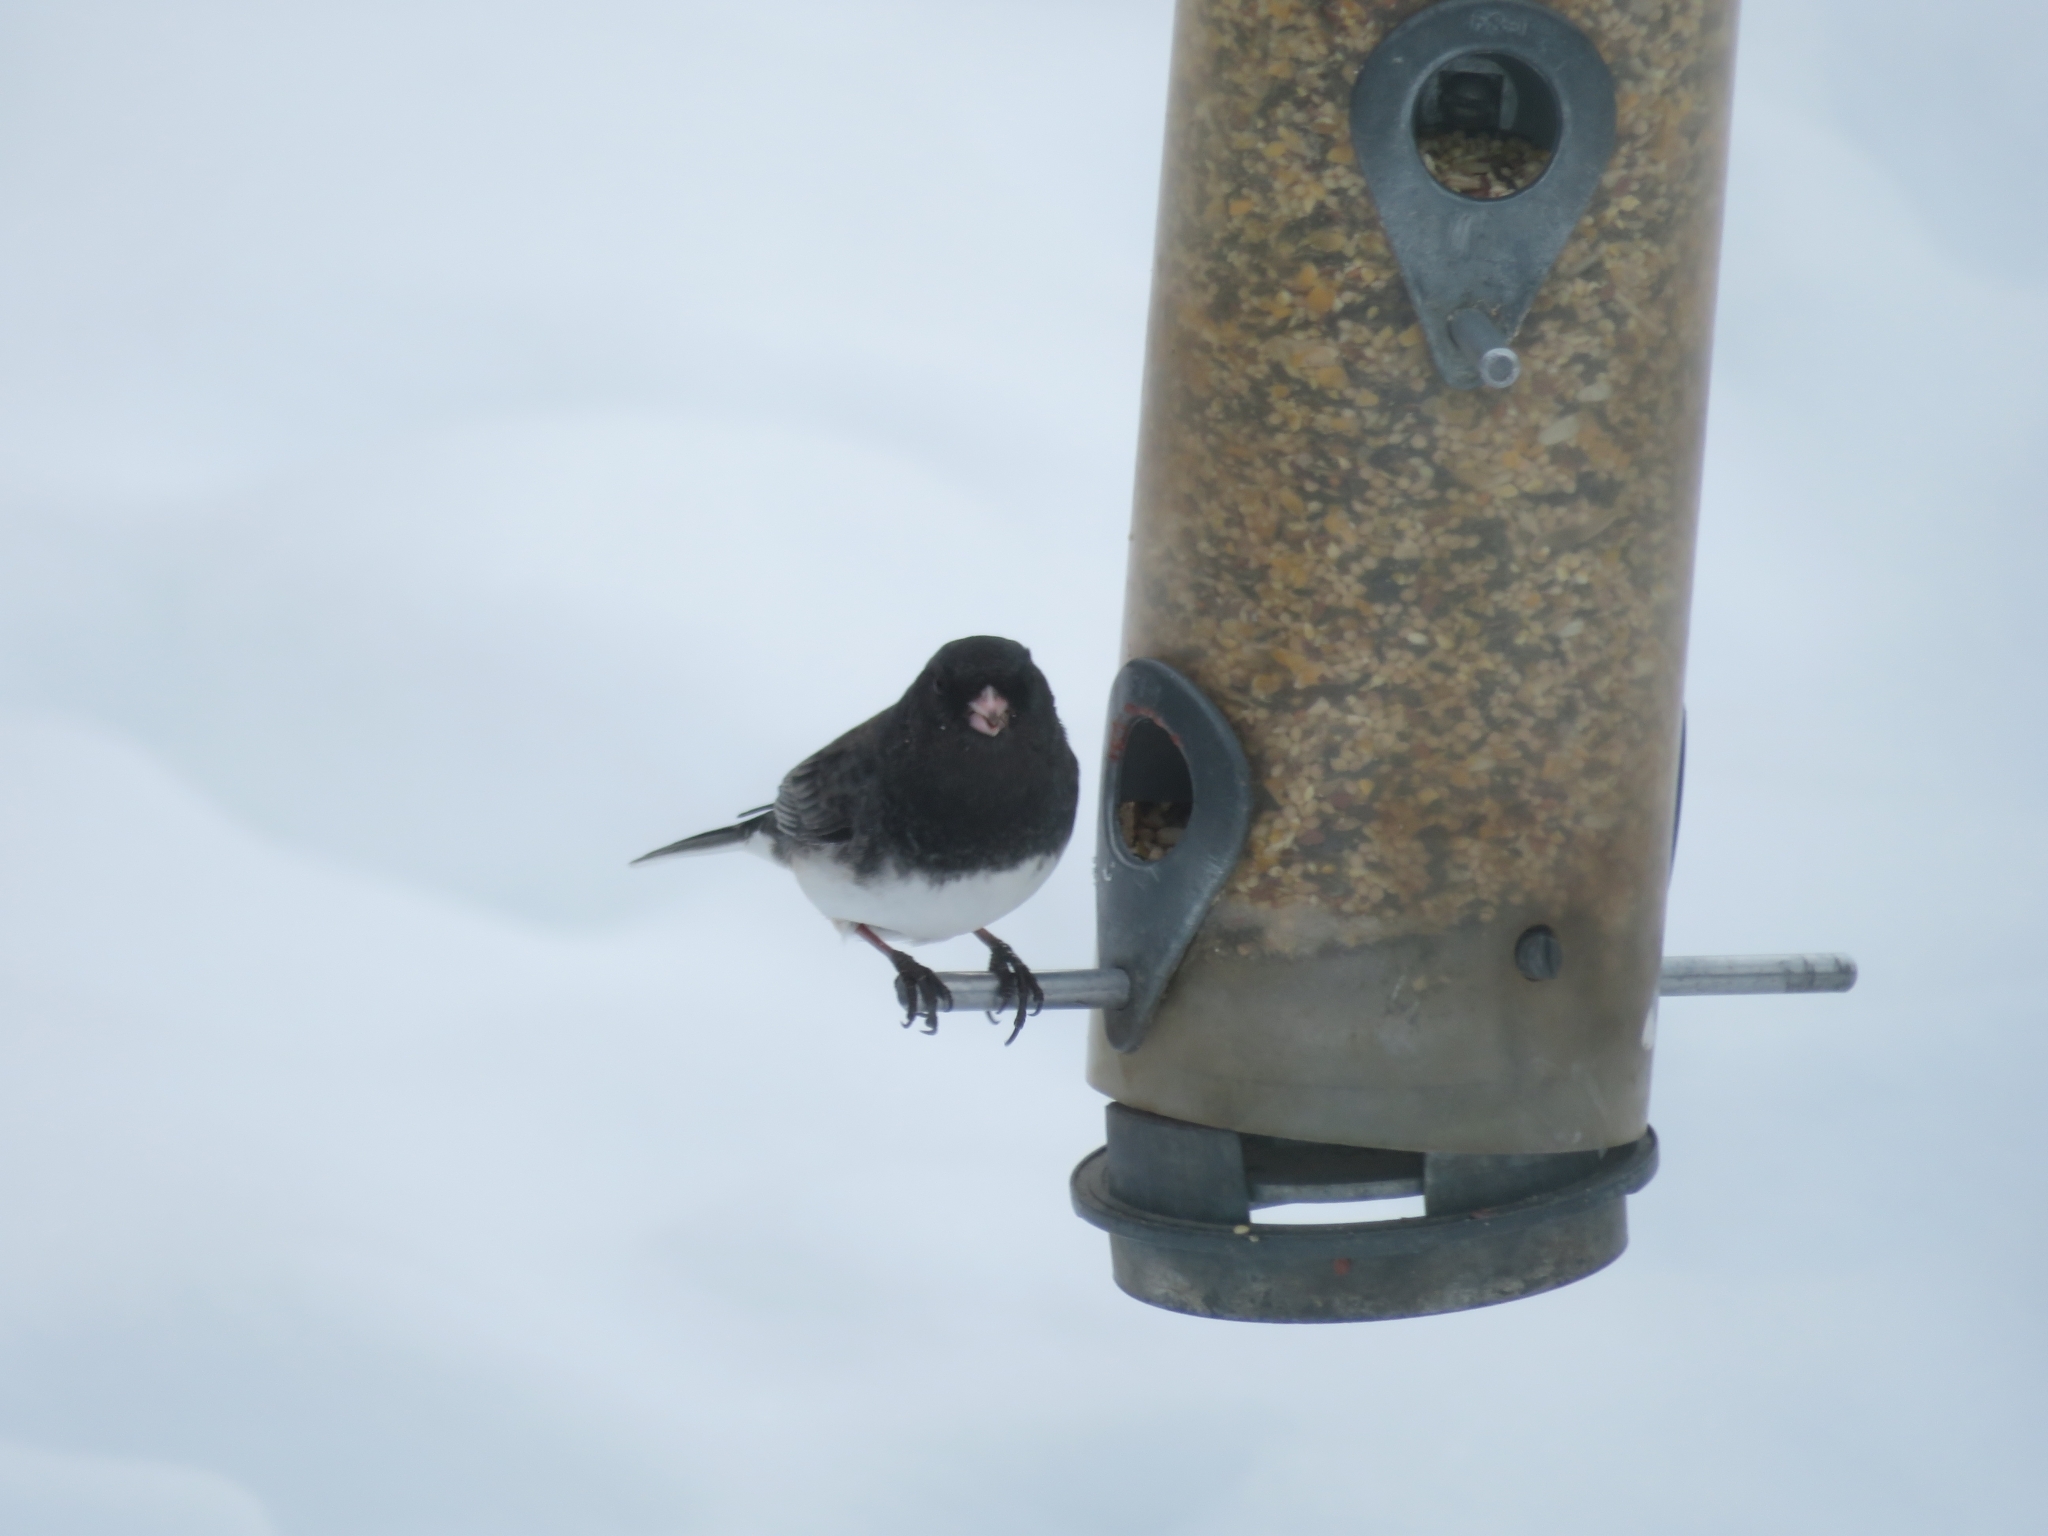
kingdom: Animalia
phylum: Chordata
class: Aves
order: Passeriformes
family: Passerellidae
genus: Junco
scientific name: Junco hyemalis
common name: Dark-eyed junco
